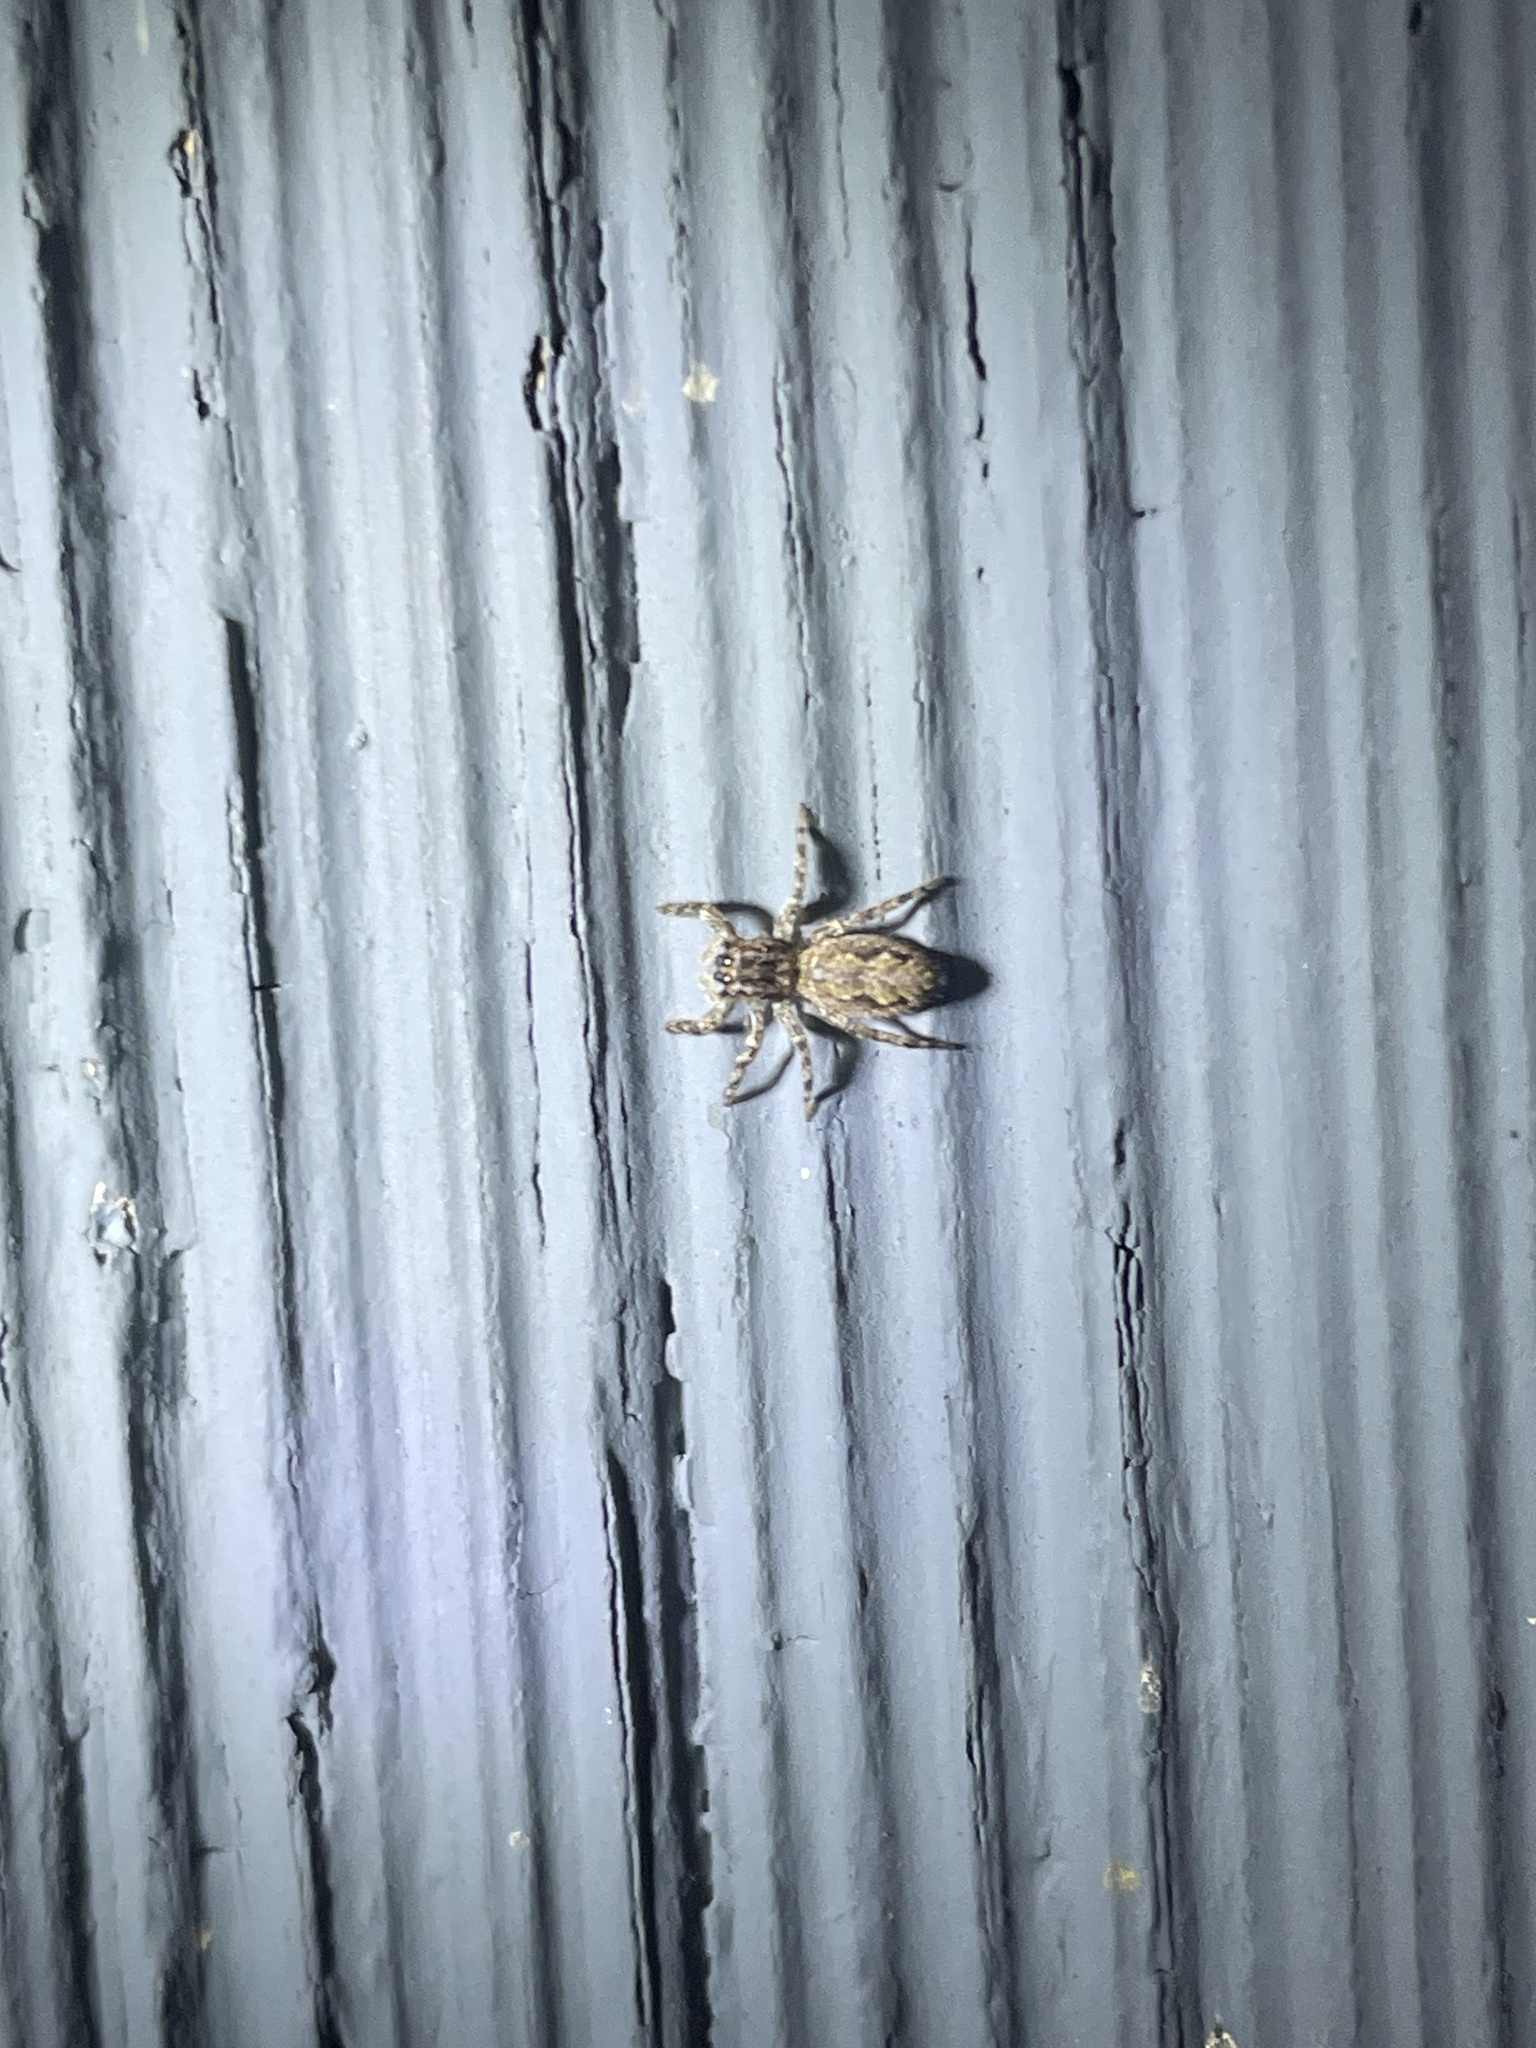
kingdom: Animalia
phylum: Arthropoda
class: Arachnida
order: Araneae
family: Salticidae
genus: Platycryptus
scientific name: Platycryptus undatus
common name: Tan jumping spider
